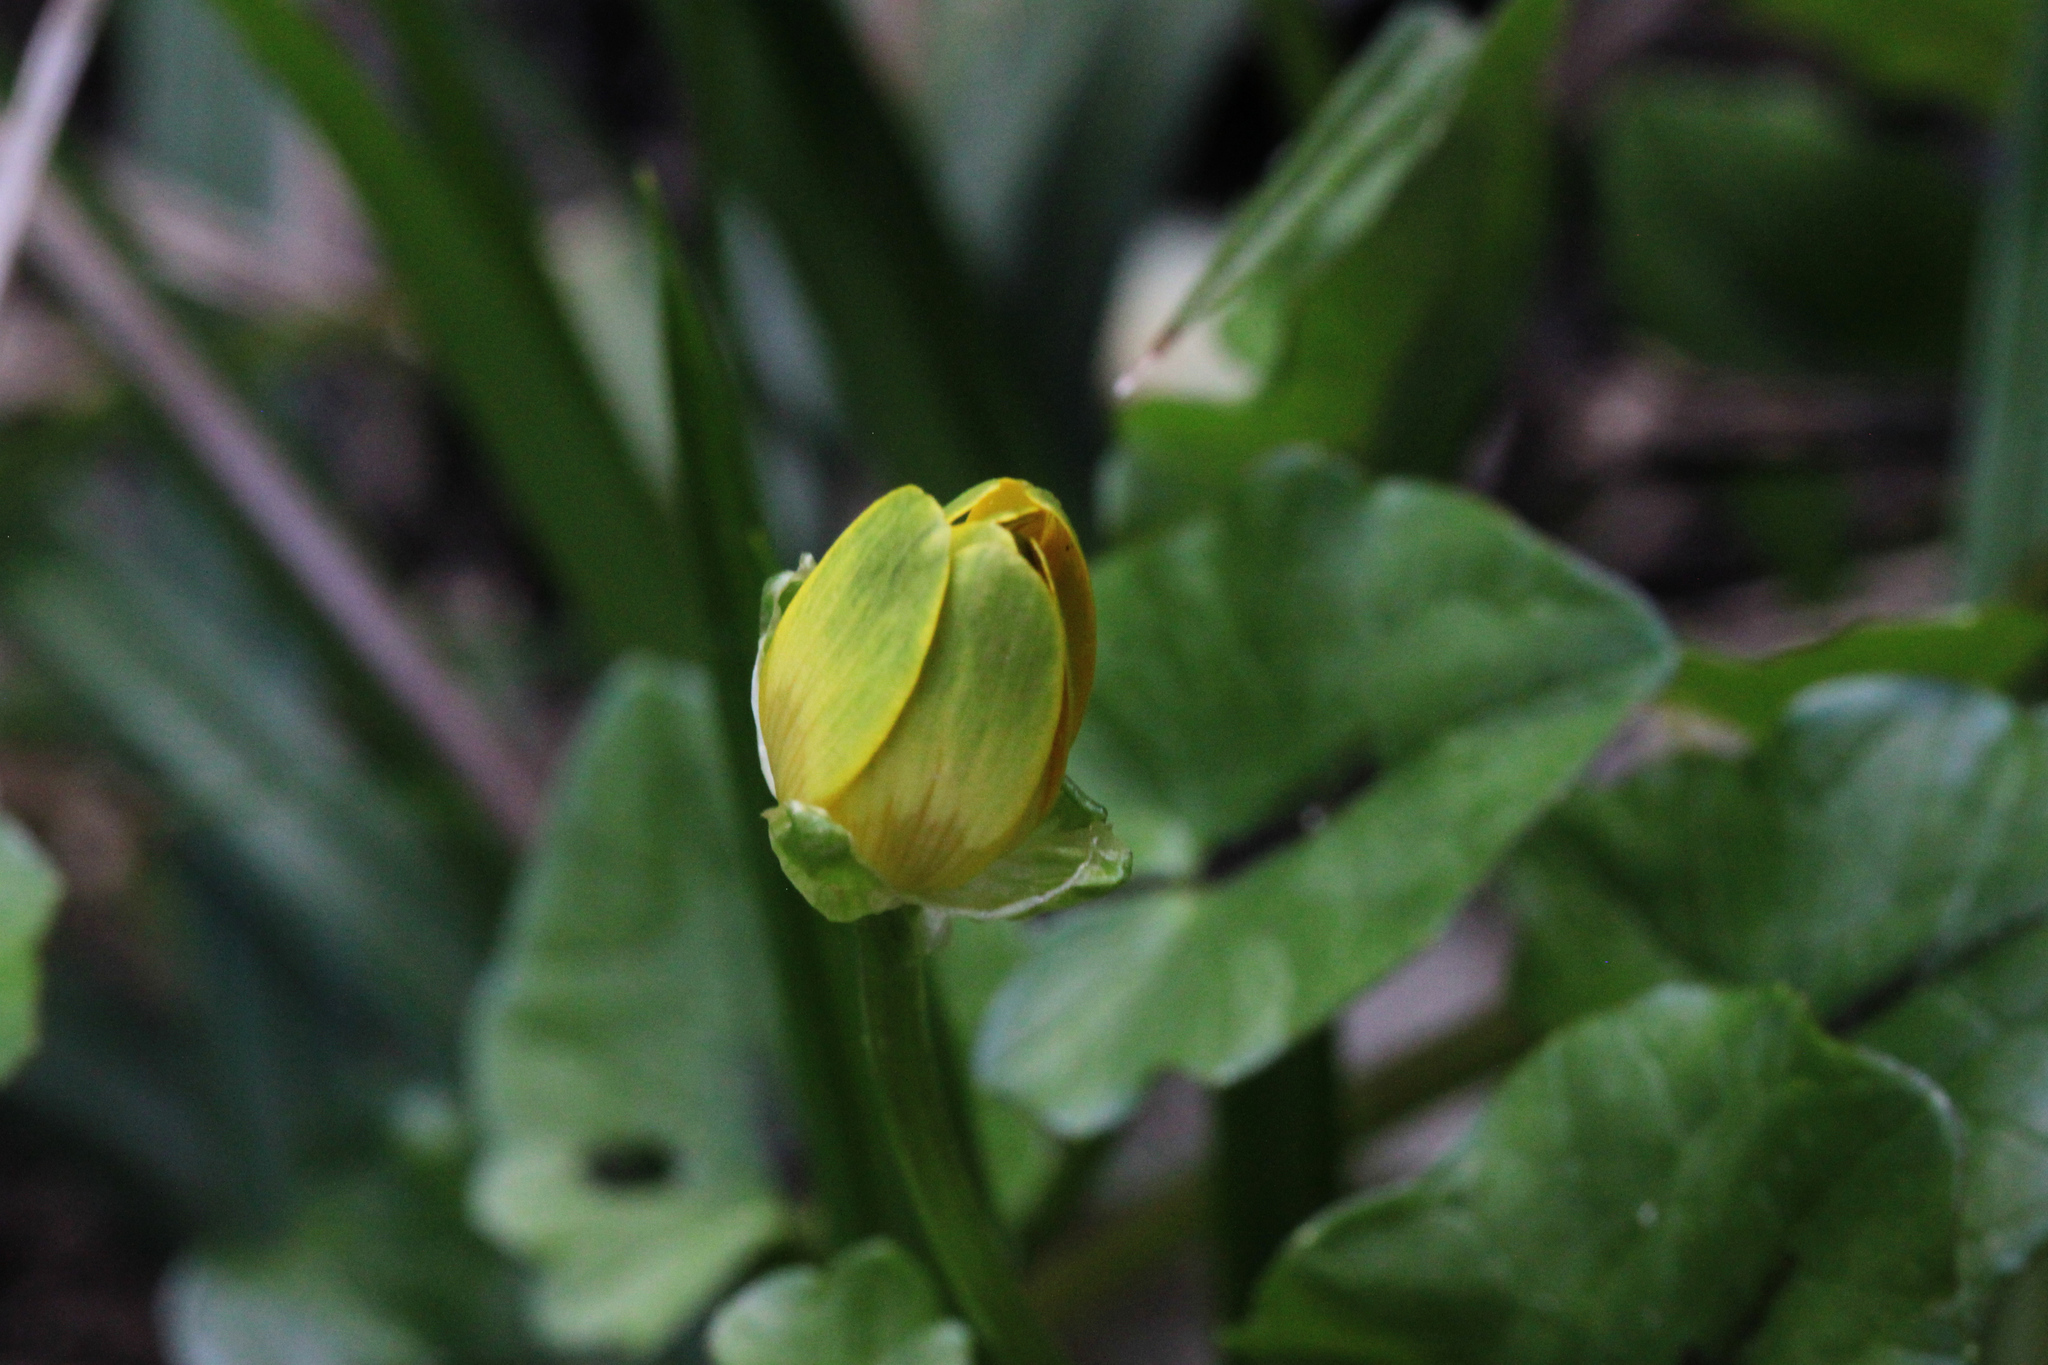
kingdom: Plantae
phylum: Tracheophyta
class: Magnoliopsida
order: Ranunculales
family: Ranunculaceae
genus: Ficaria
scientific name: Ficaria verna
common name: Lesser celandine
